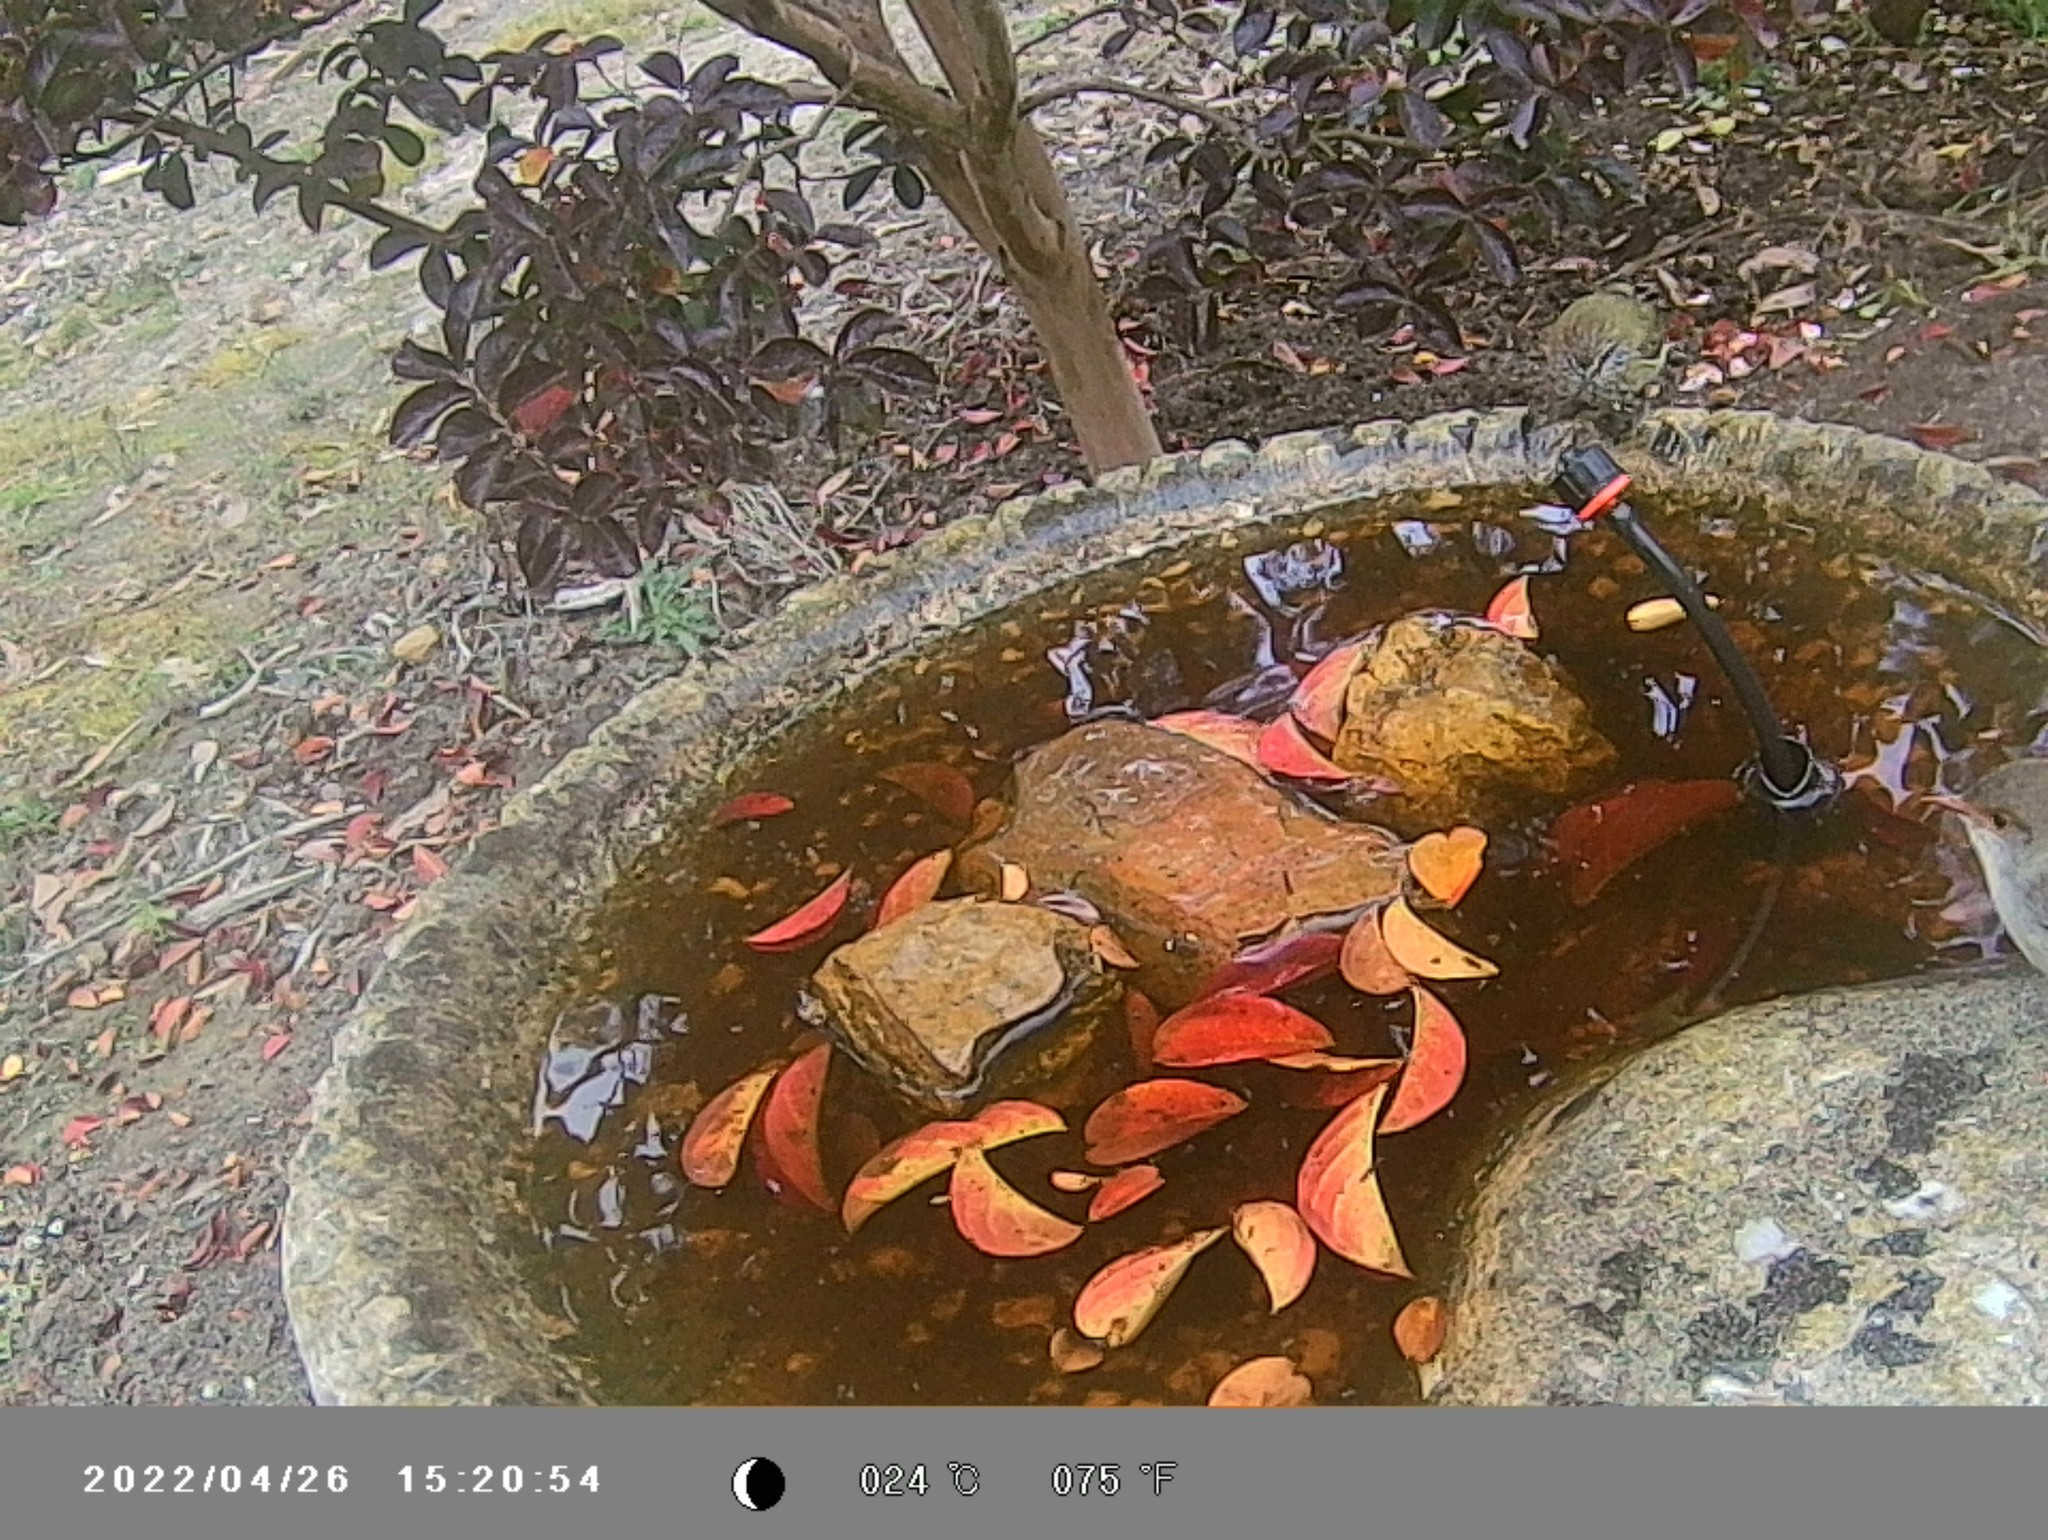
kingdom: Animalia
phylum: Chordata
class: Aves
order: Passeriformes
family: Maluridae
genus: Malurus
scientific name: Malurus cyaneus
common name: Superb fairywren
